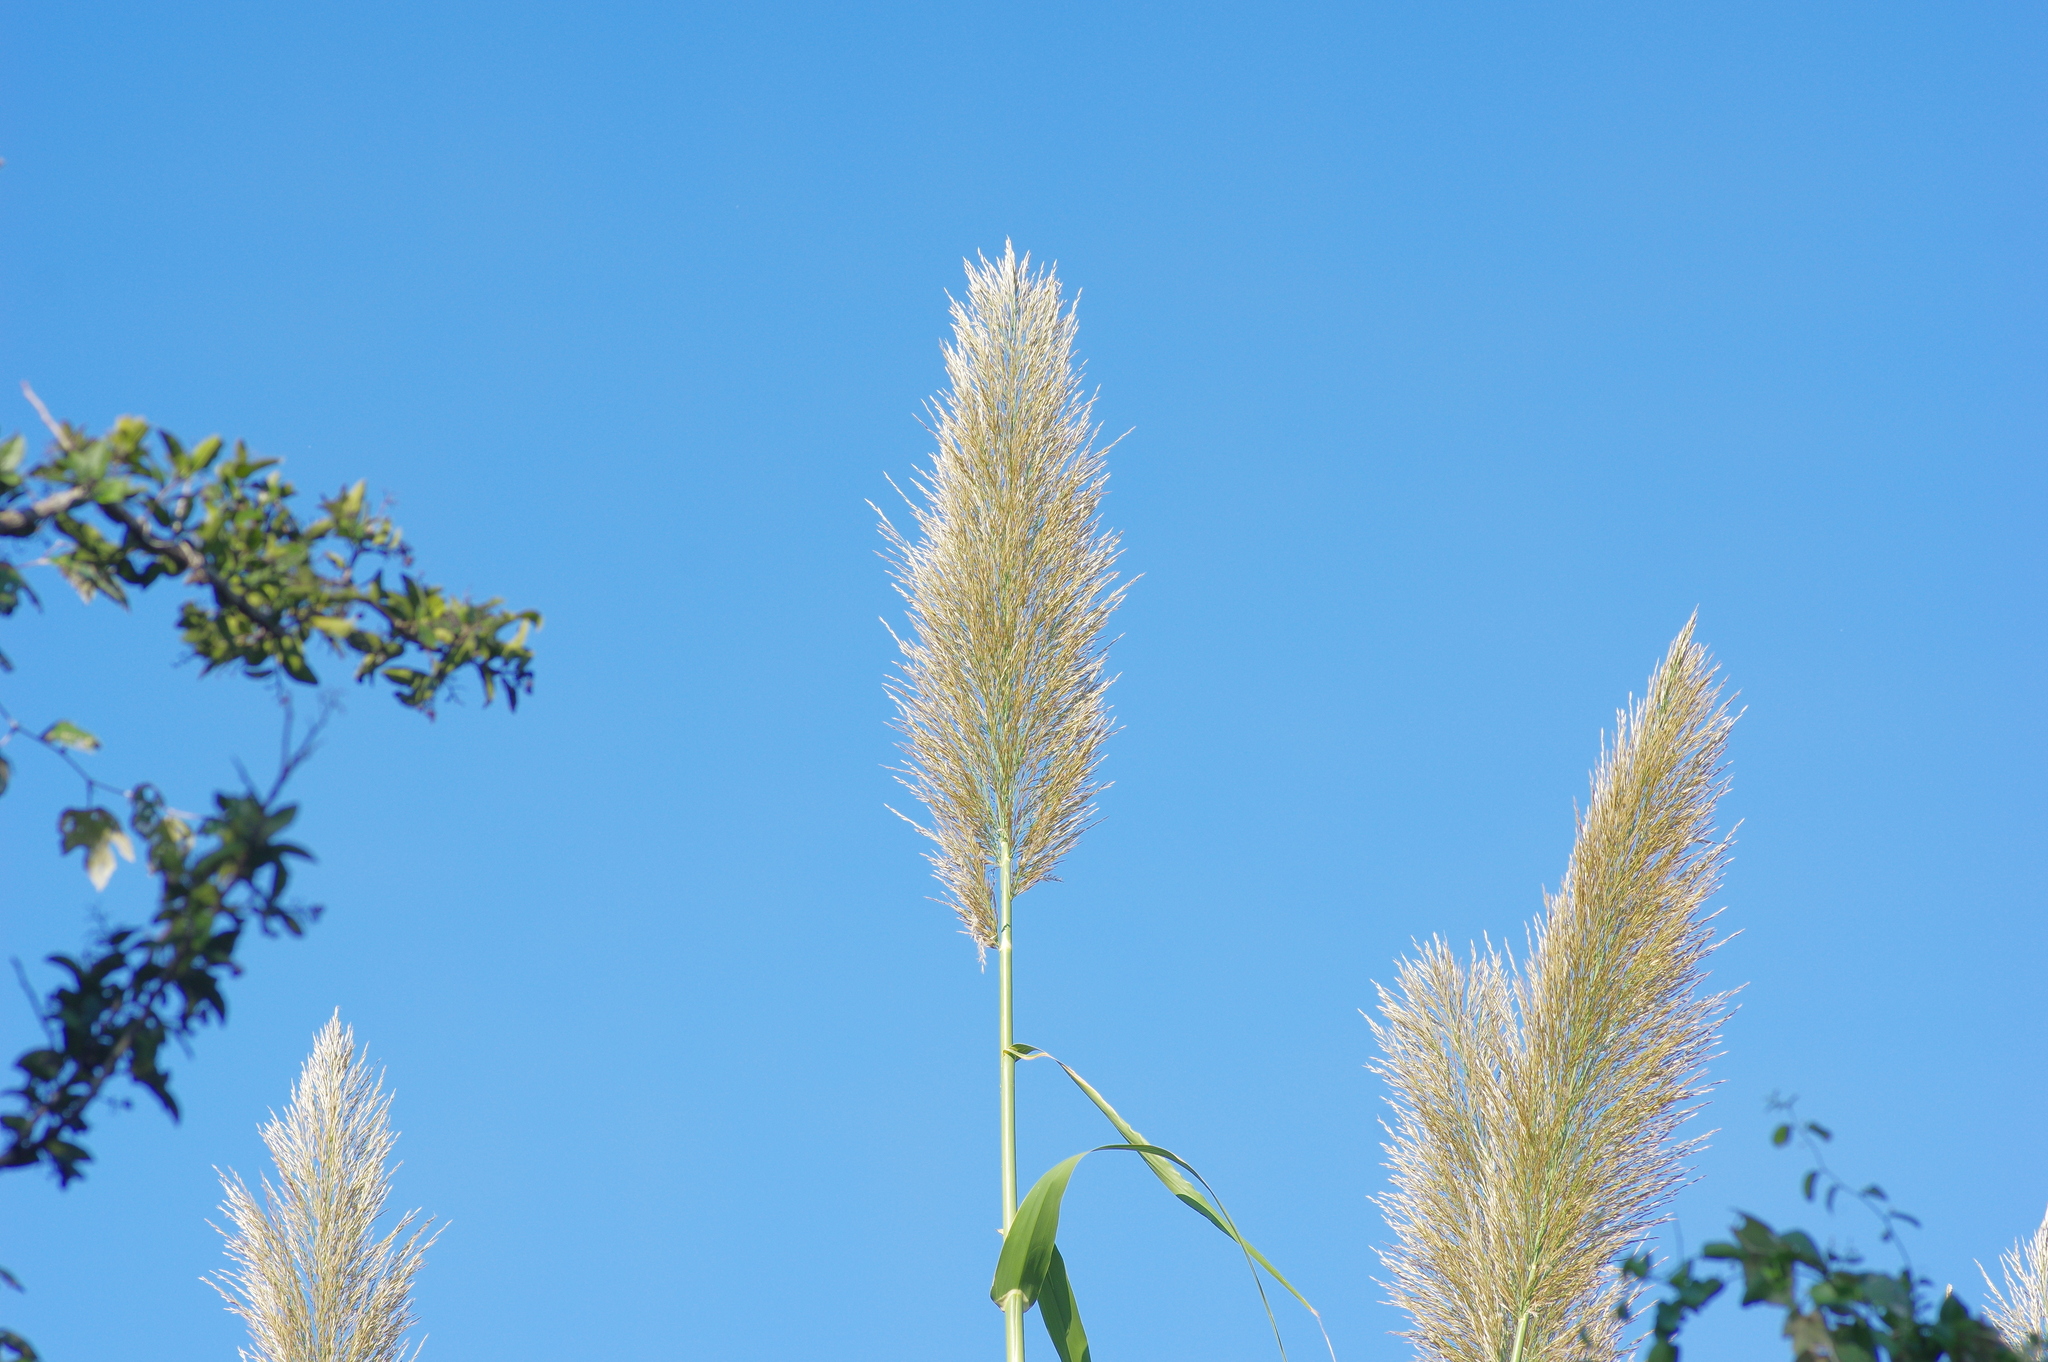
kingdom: Plantae
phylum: Tracheophyta
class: Liliopsida
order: Poales
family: Poaceae
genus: Arundo
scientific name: Arundo donax
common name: Giant reed
